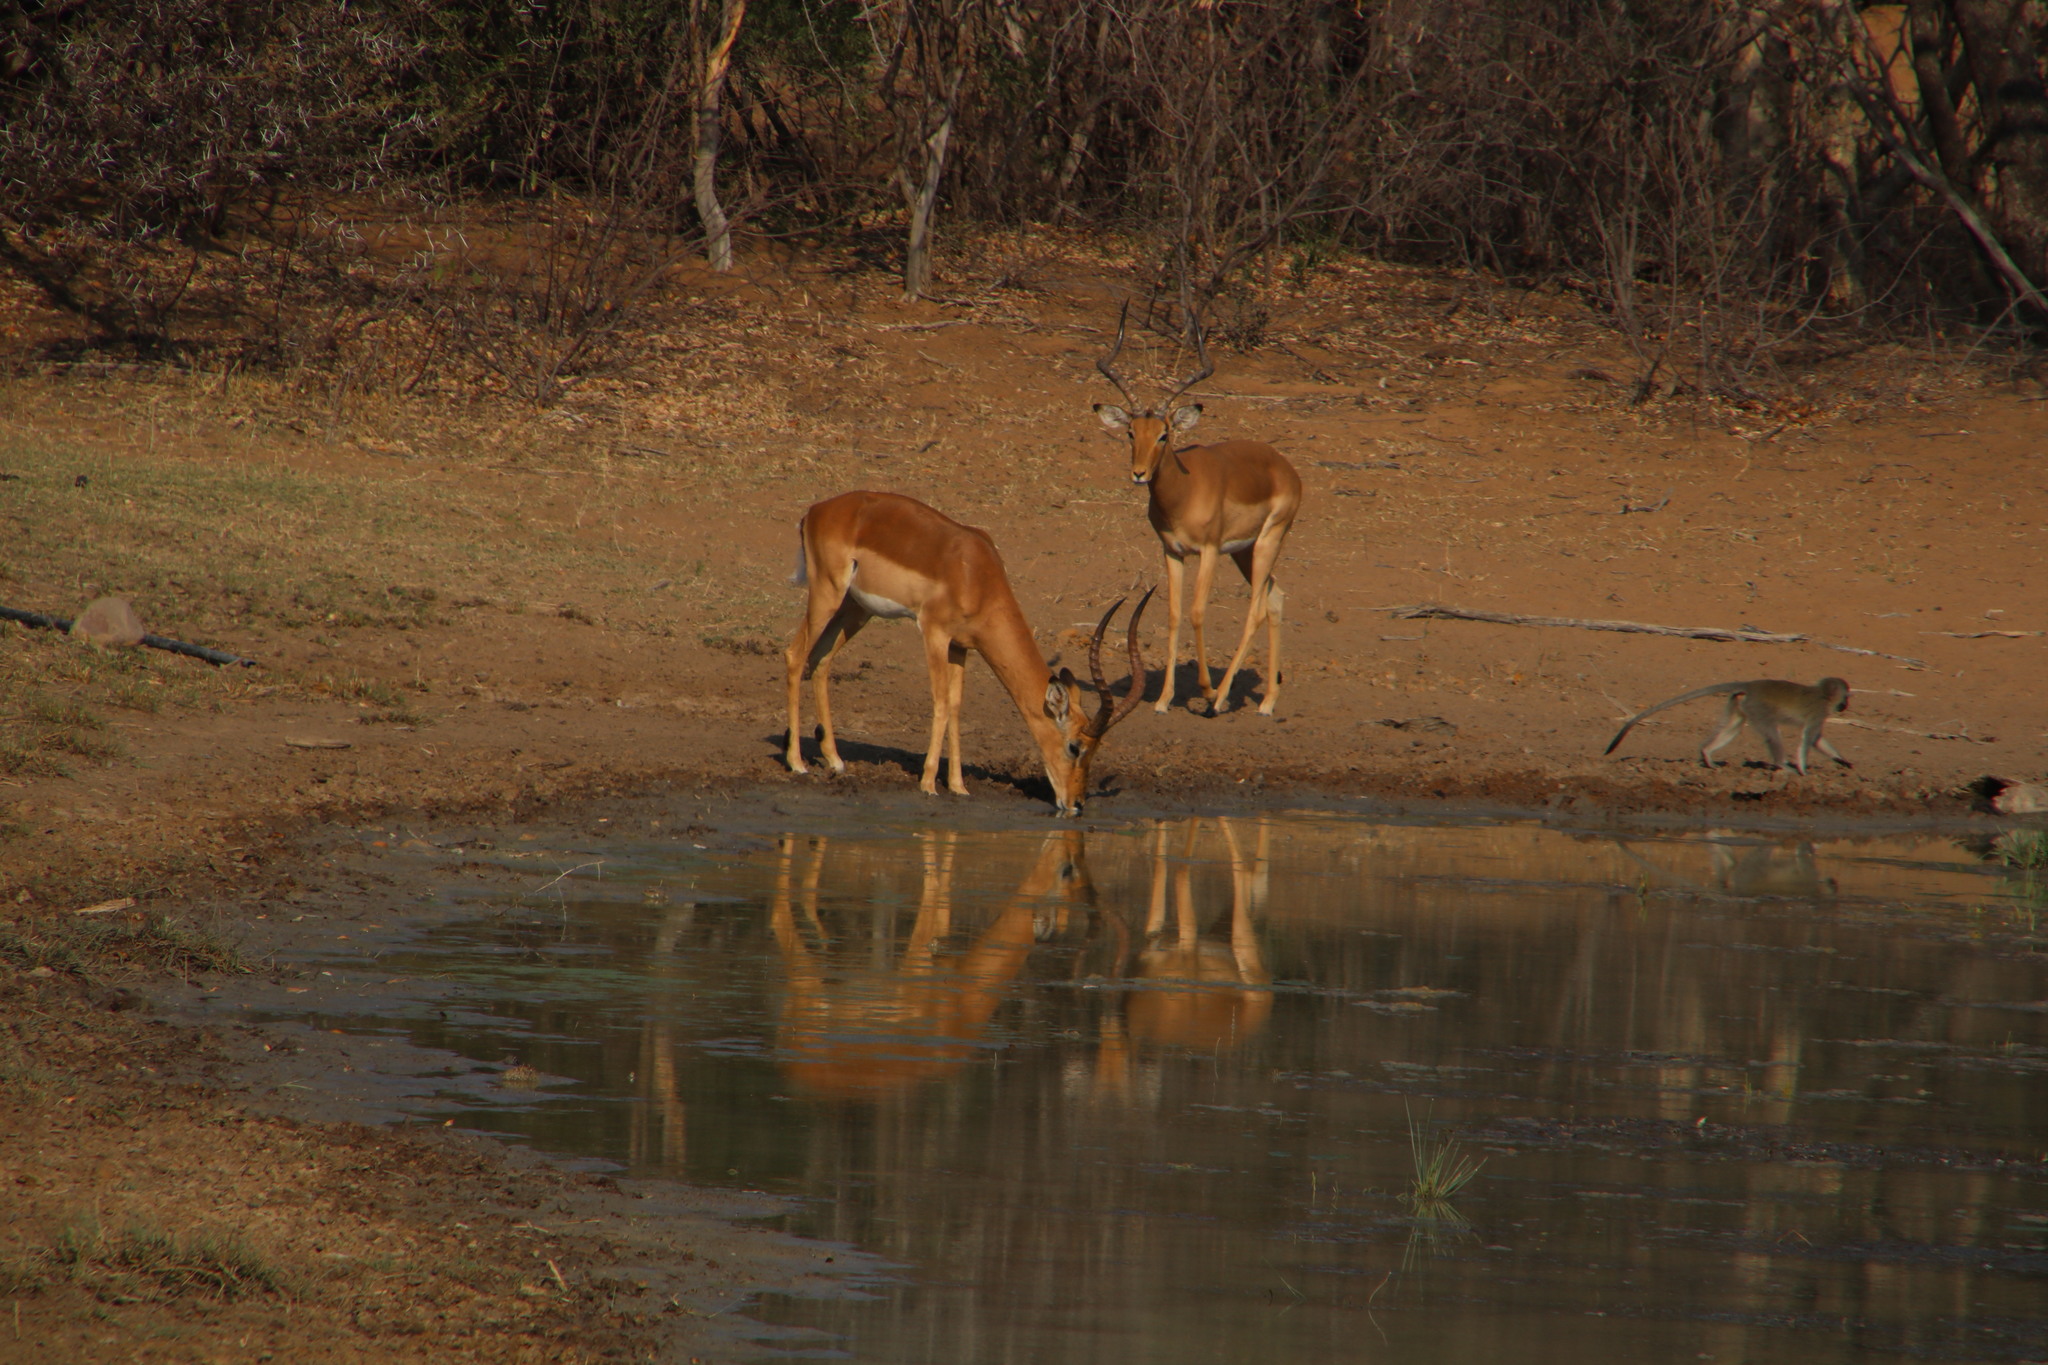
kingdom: Animalia
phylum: Chordata
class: Mammalia
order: Primates
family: Cercopithecidae
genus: Chlorocebus
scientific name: Chlorocebus pygerythrus
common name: Vervet monkey
